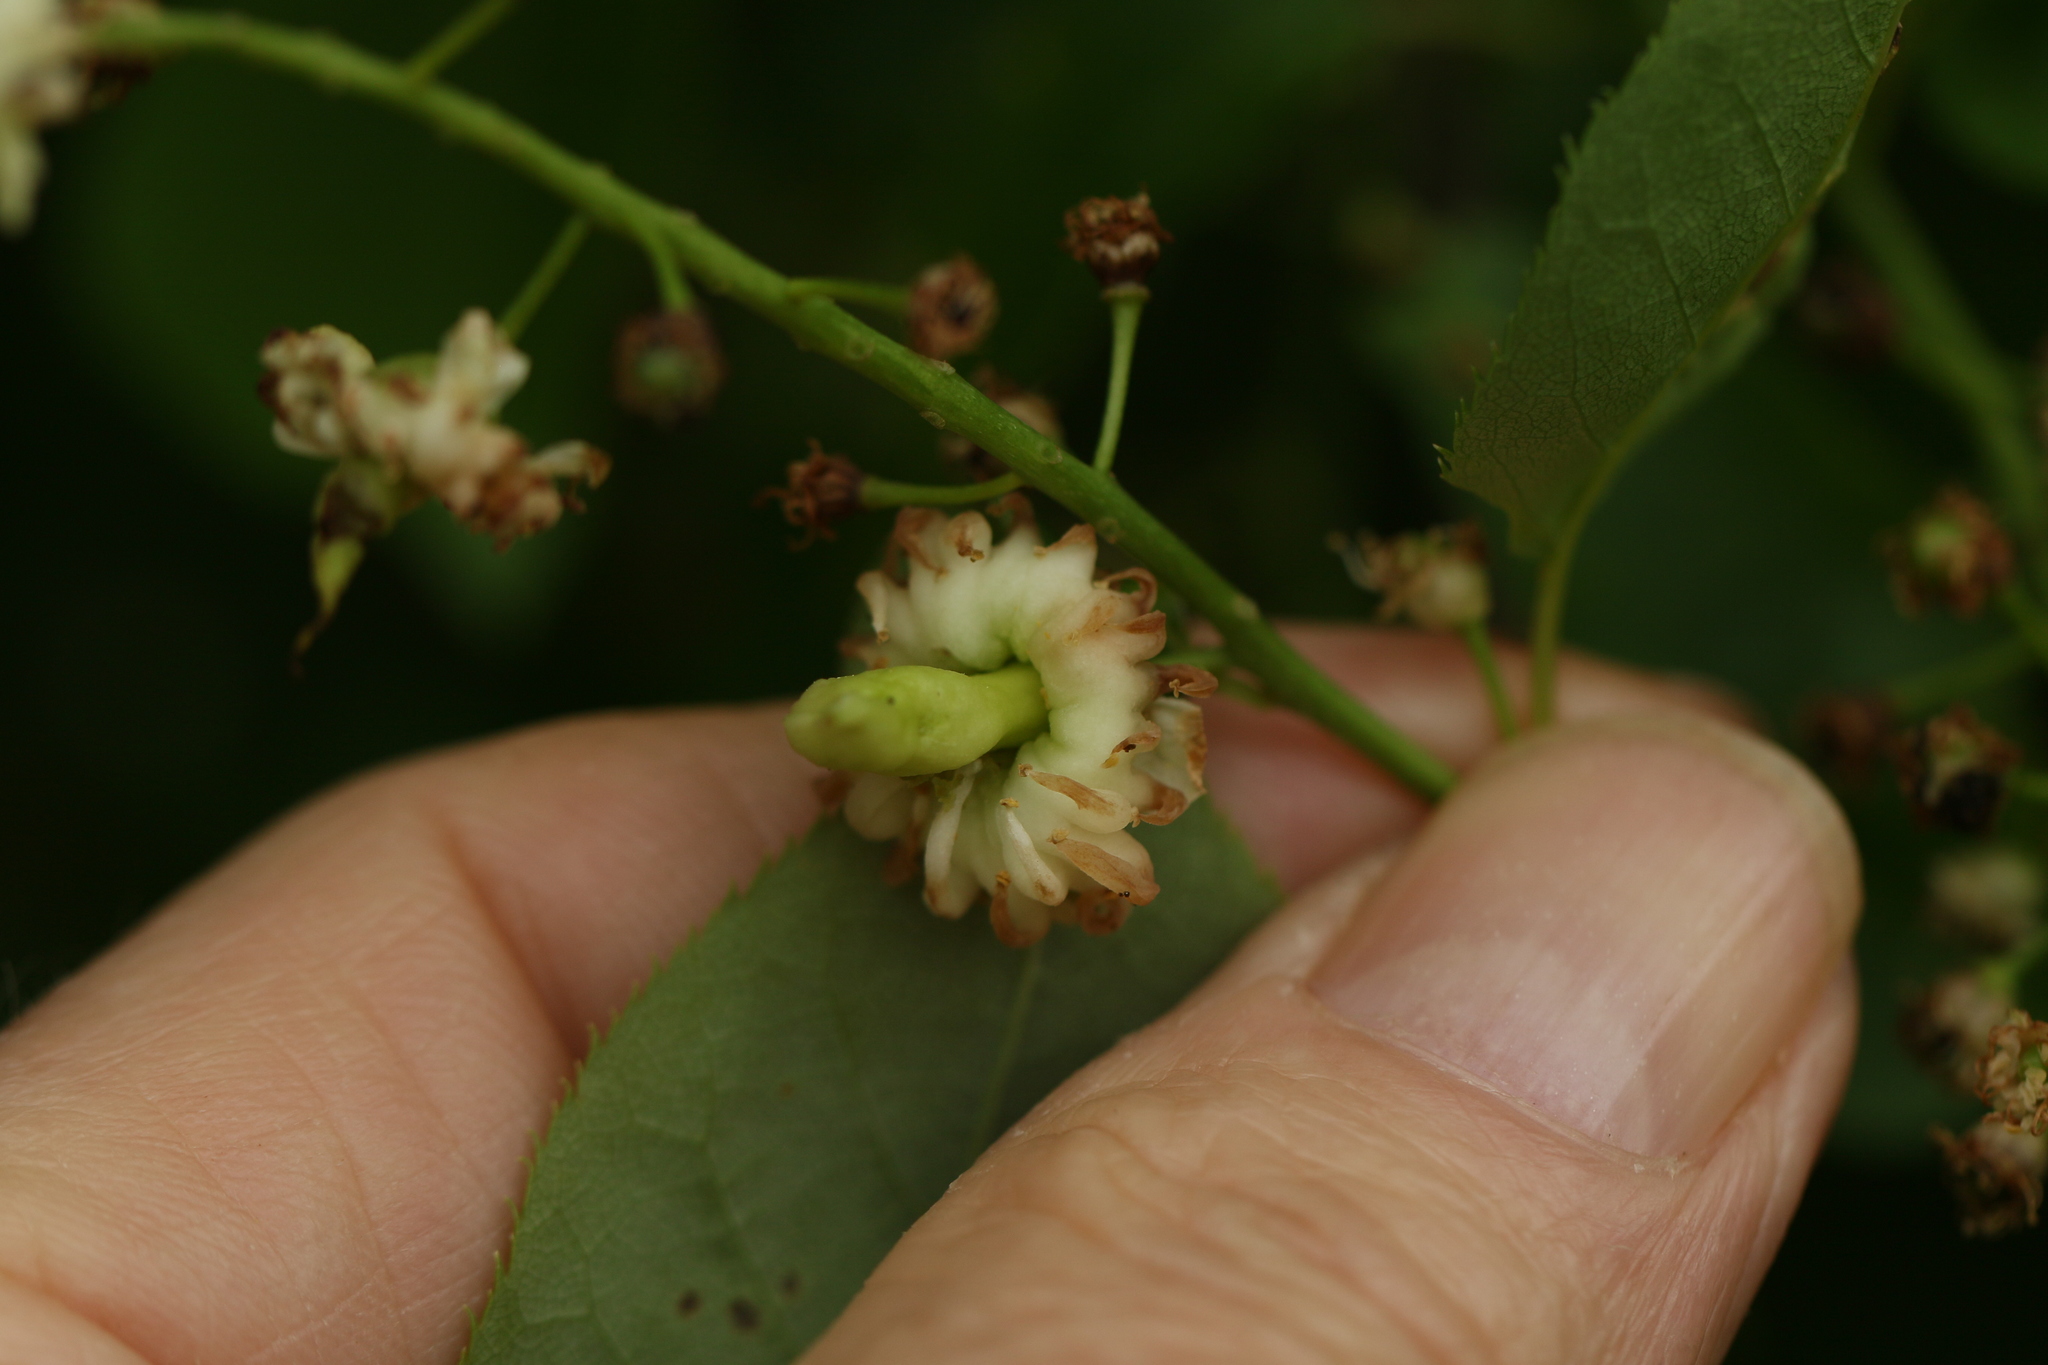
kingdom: Fungi
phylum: Ascomycota
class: Taphrinomycetes
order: Taphrinales
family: Taphrinaceae
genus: Taphrina
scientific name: Taphrina confusa
